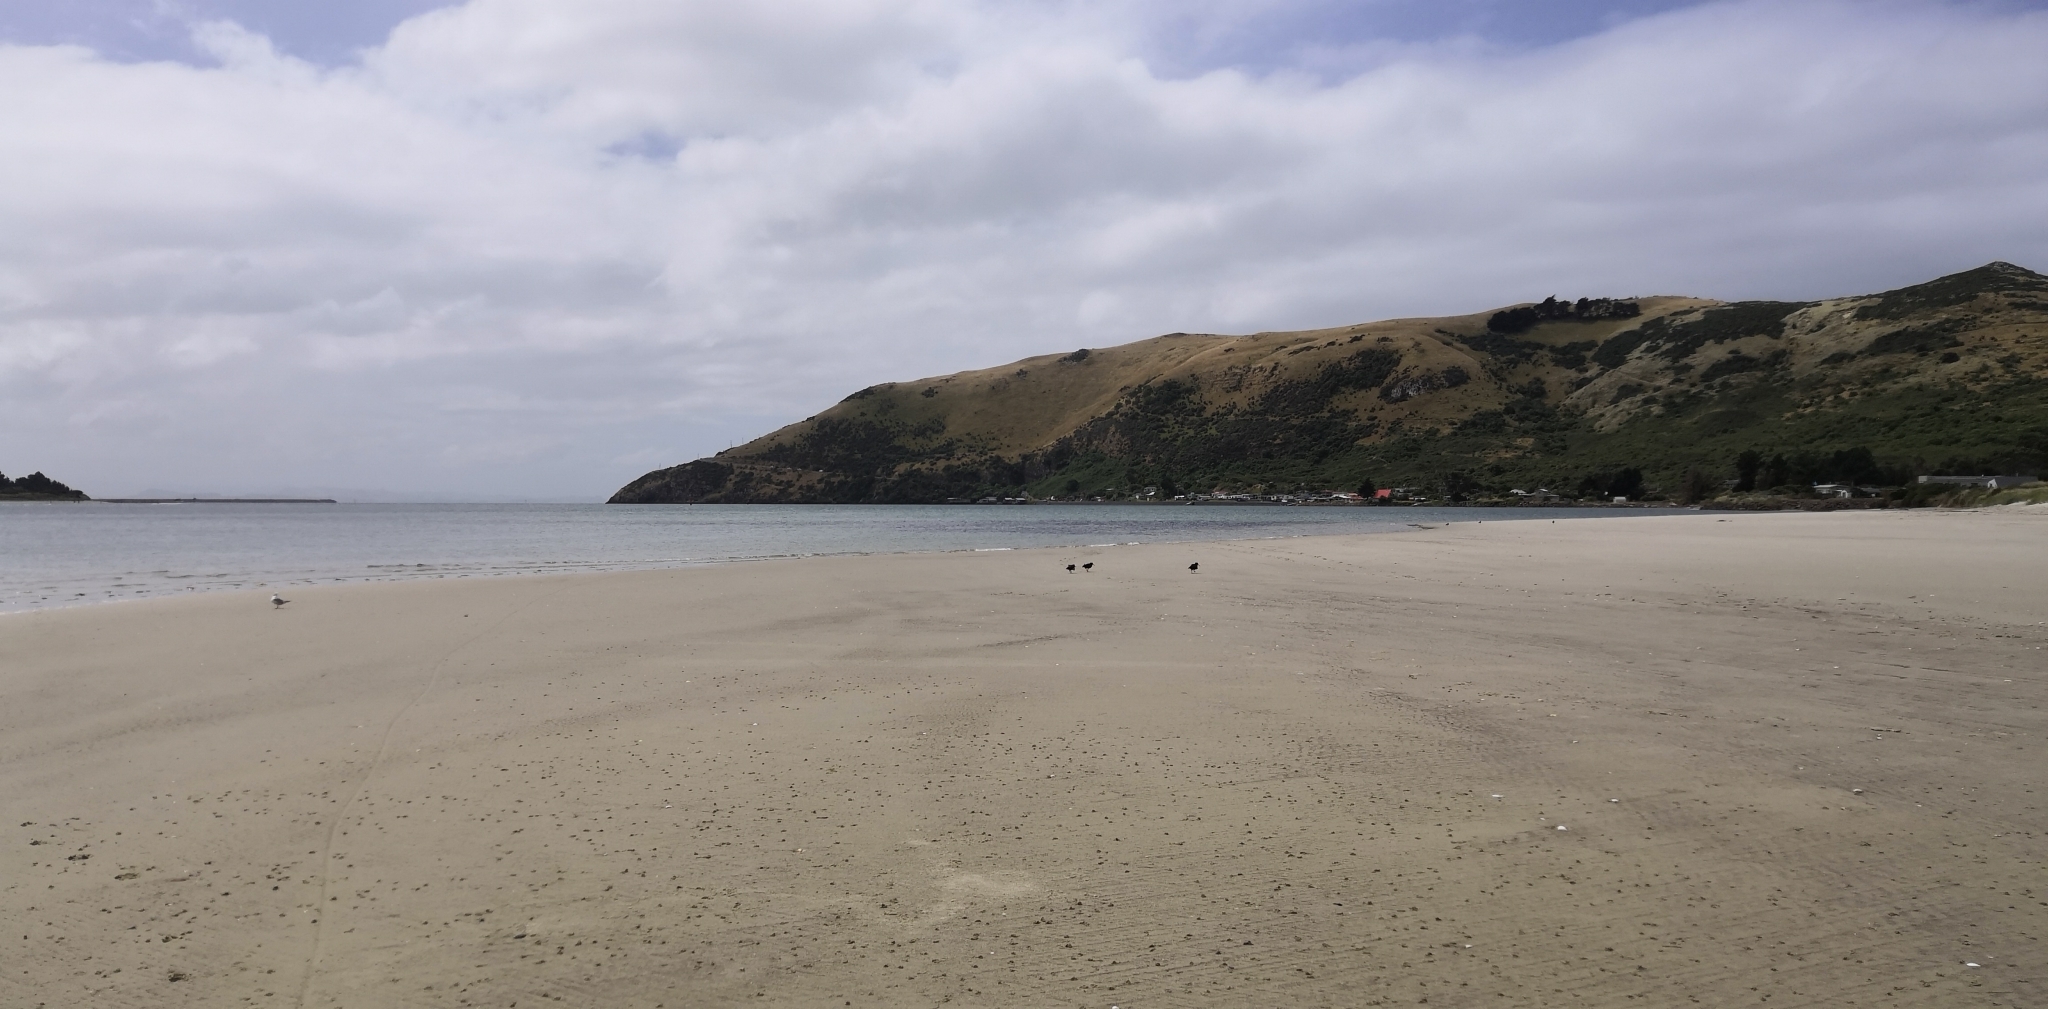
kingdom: Animalia
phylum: Chordata
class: Aves
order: Charadriiformes
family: Haematopodidae
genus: Haematopus
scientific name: Haematopus unicolor
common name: Variable oystercatcher
